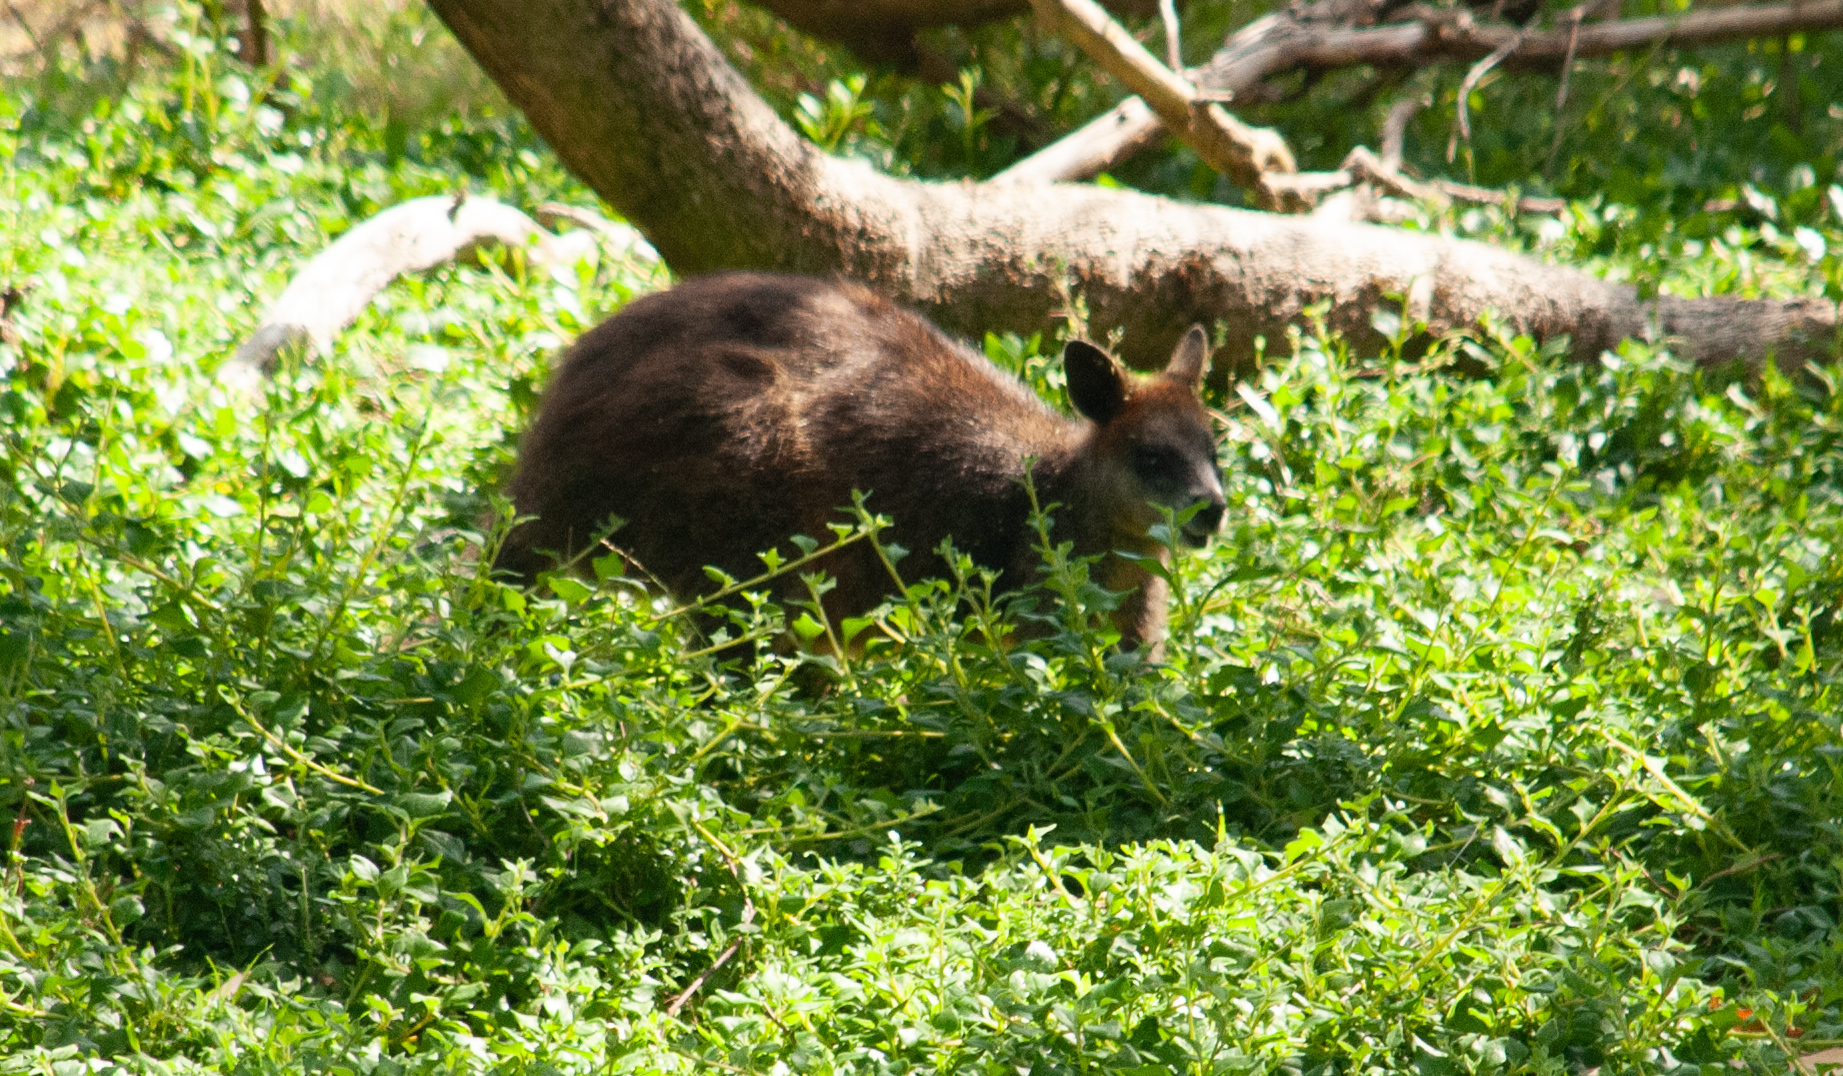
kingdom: Animalia
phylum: Chordata
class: Mammalia
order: Diprotodontia
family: Macropodidae
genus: Wallabia
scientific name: Wallabia bicolor
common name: Swamp wallaby
